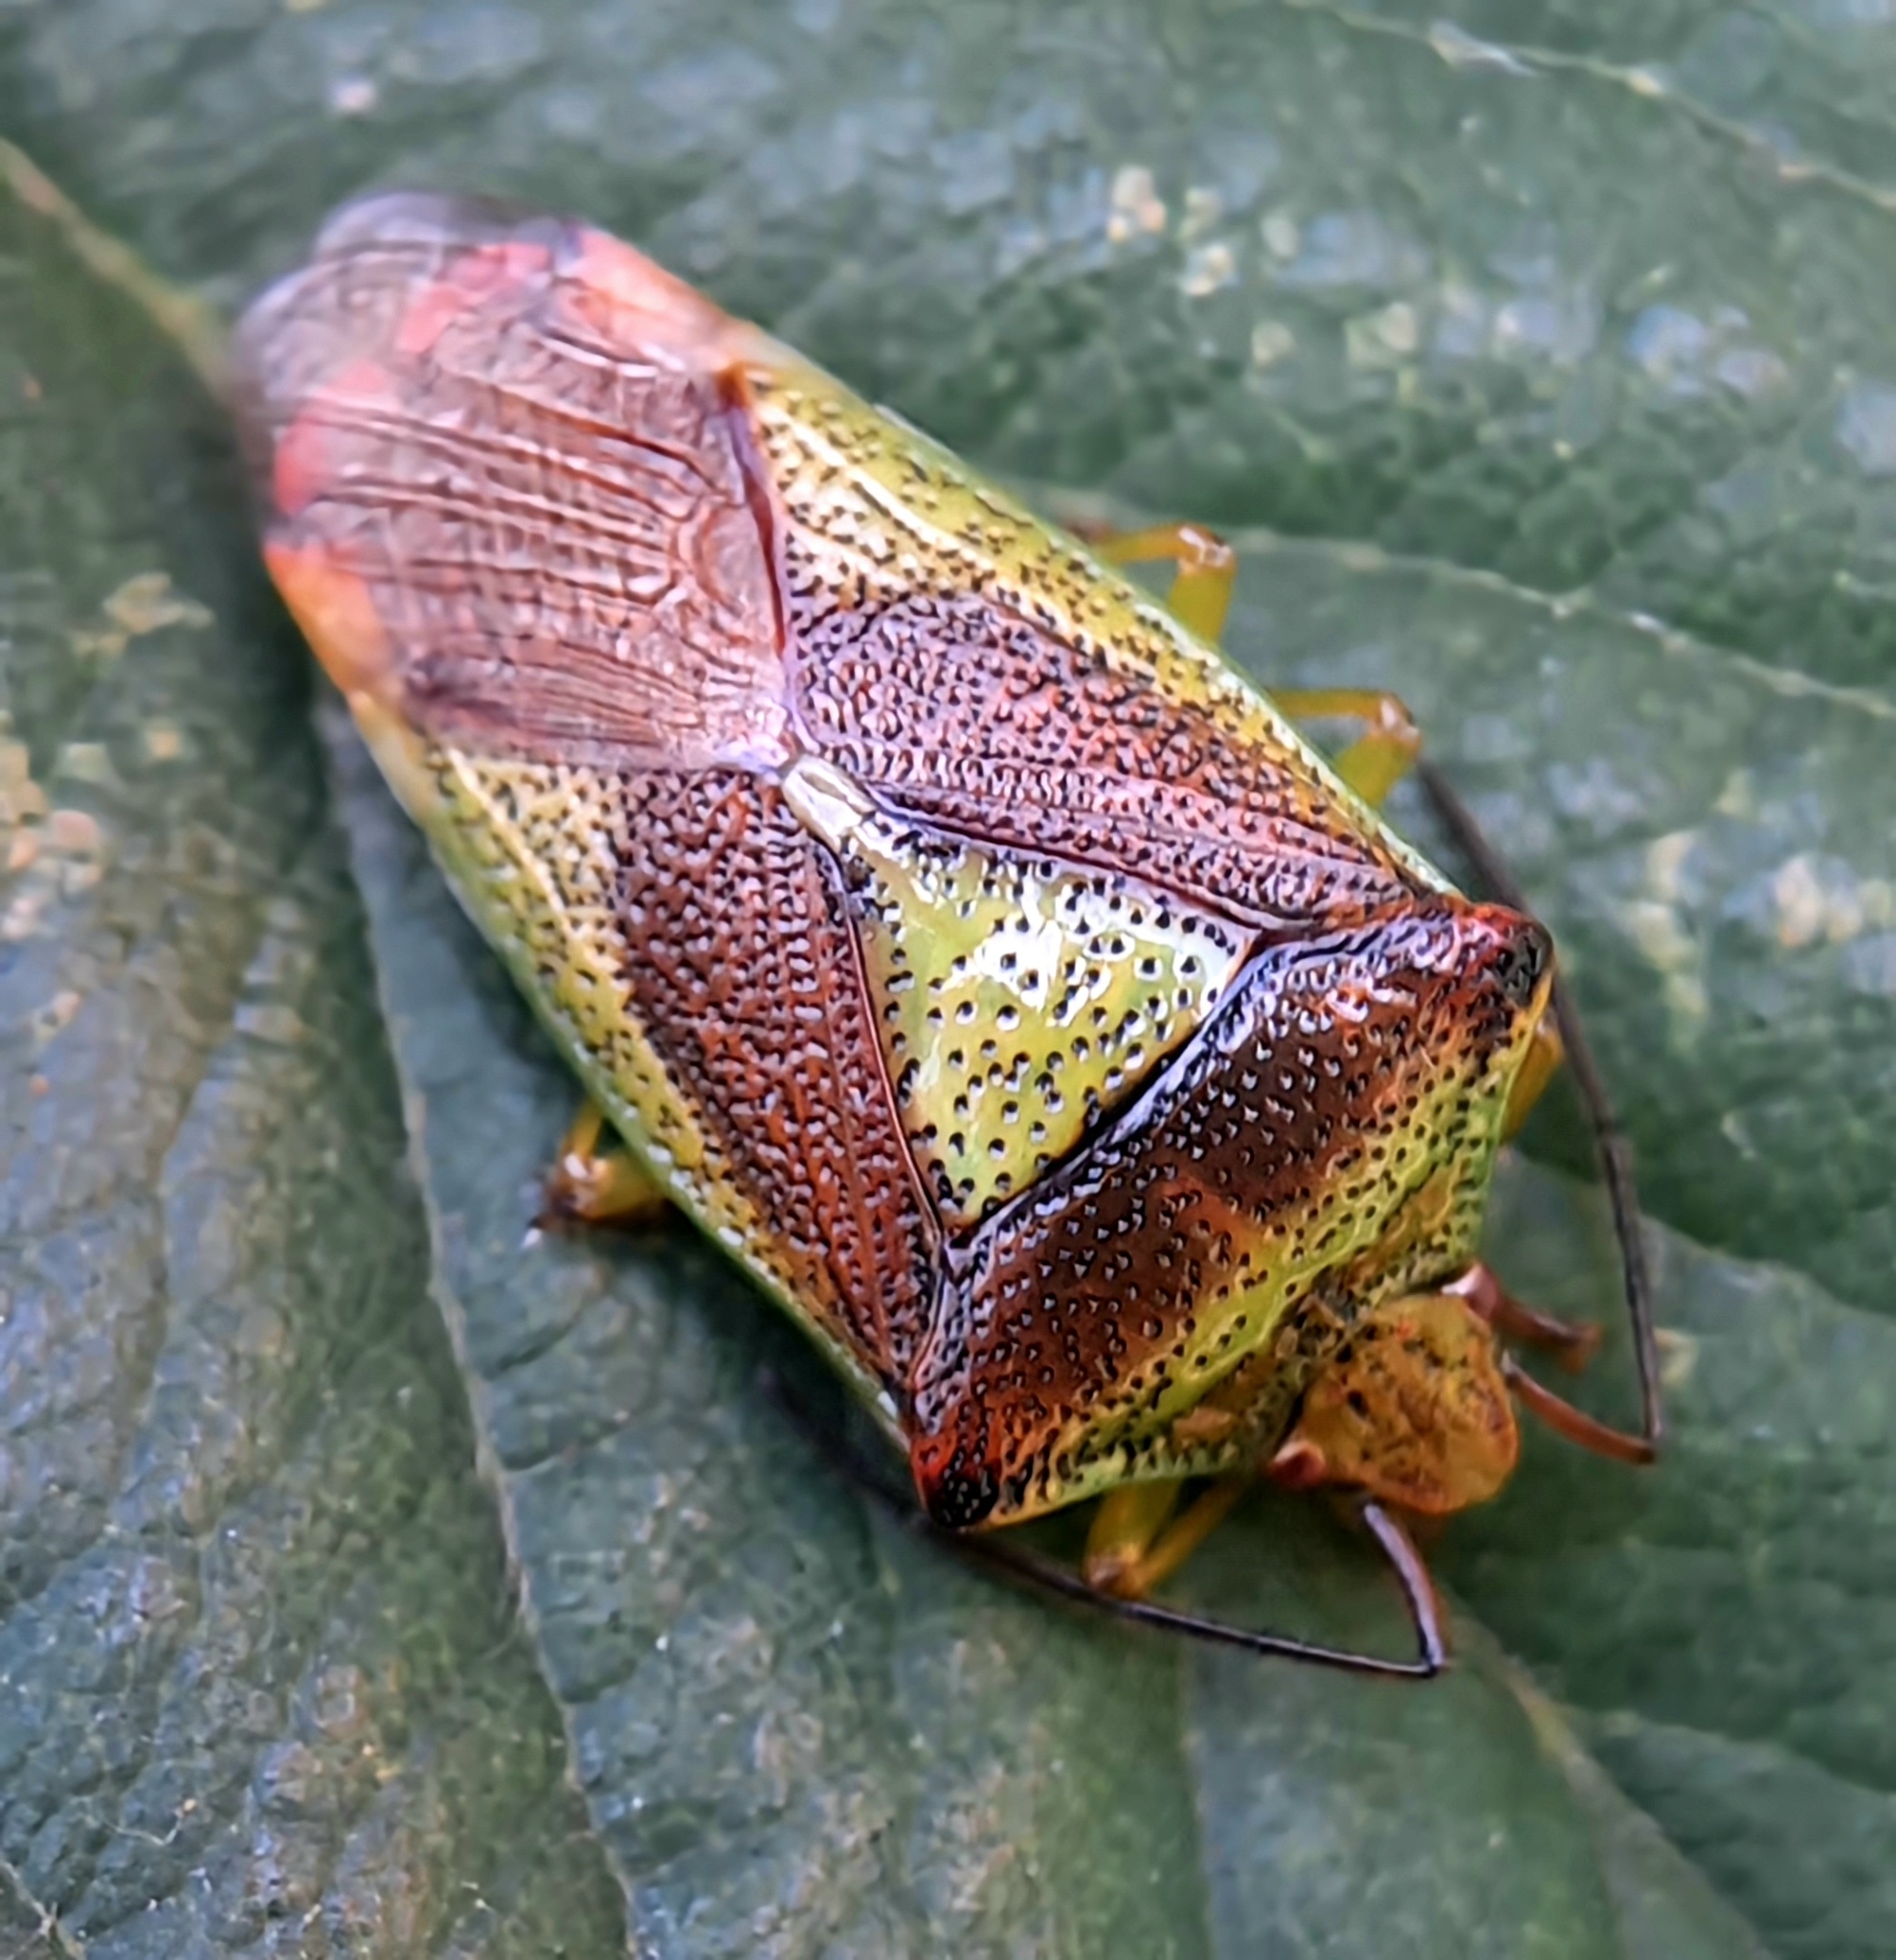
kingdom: Animalia
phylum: Arthropoda
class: Insecta
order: Hemiptera
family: Acanthosomatidae
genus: Acanthosoma
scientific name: Acanthosoma haemorrhoidale
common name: Hawthorn shieldbug
